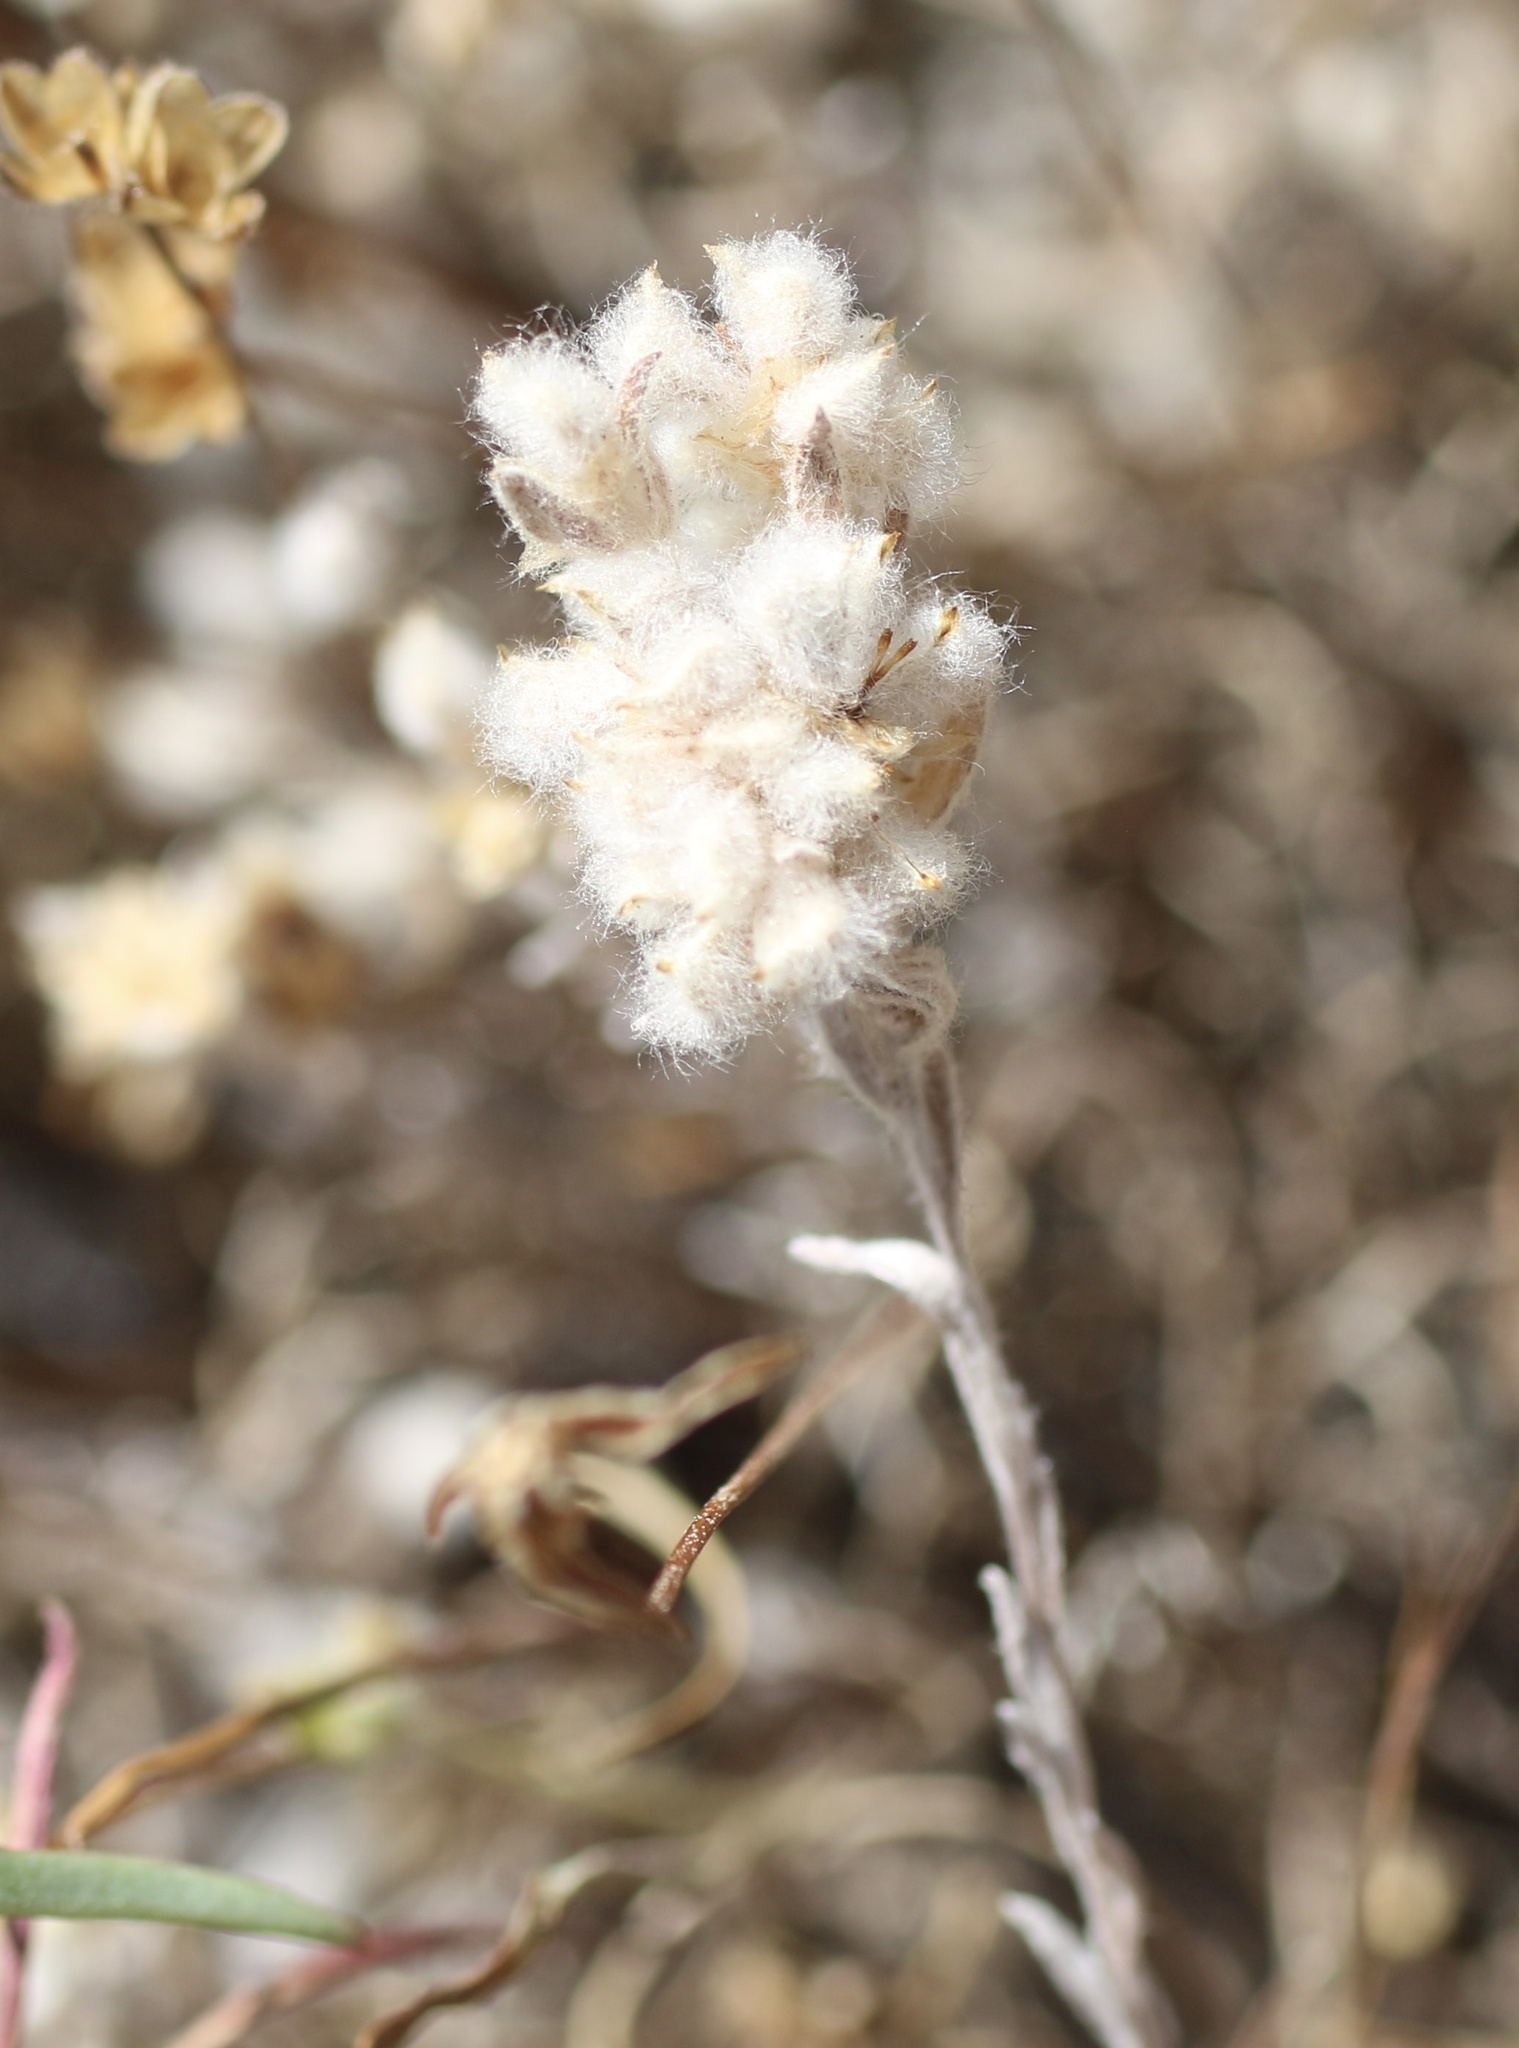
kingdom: Plantae
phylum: Tracheophyta
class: Magnoliopsida
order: Asterales
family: Asteraceae
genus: Bombycilaena
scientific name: Bombycilaena californica
